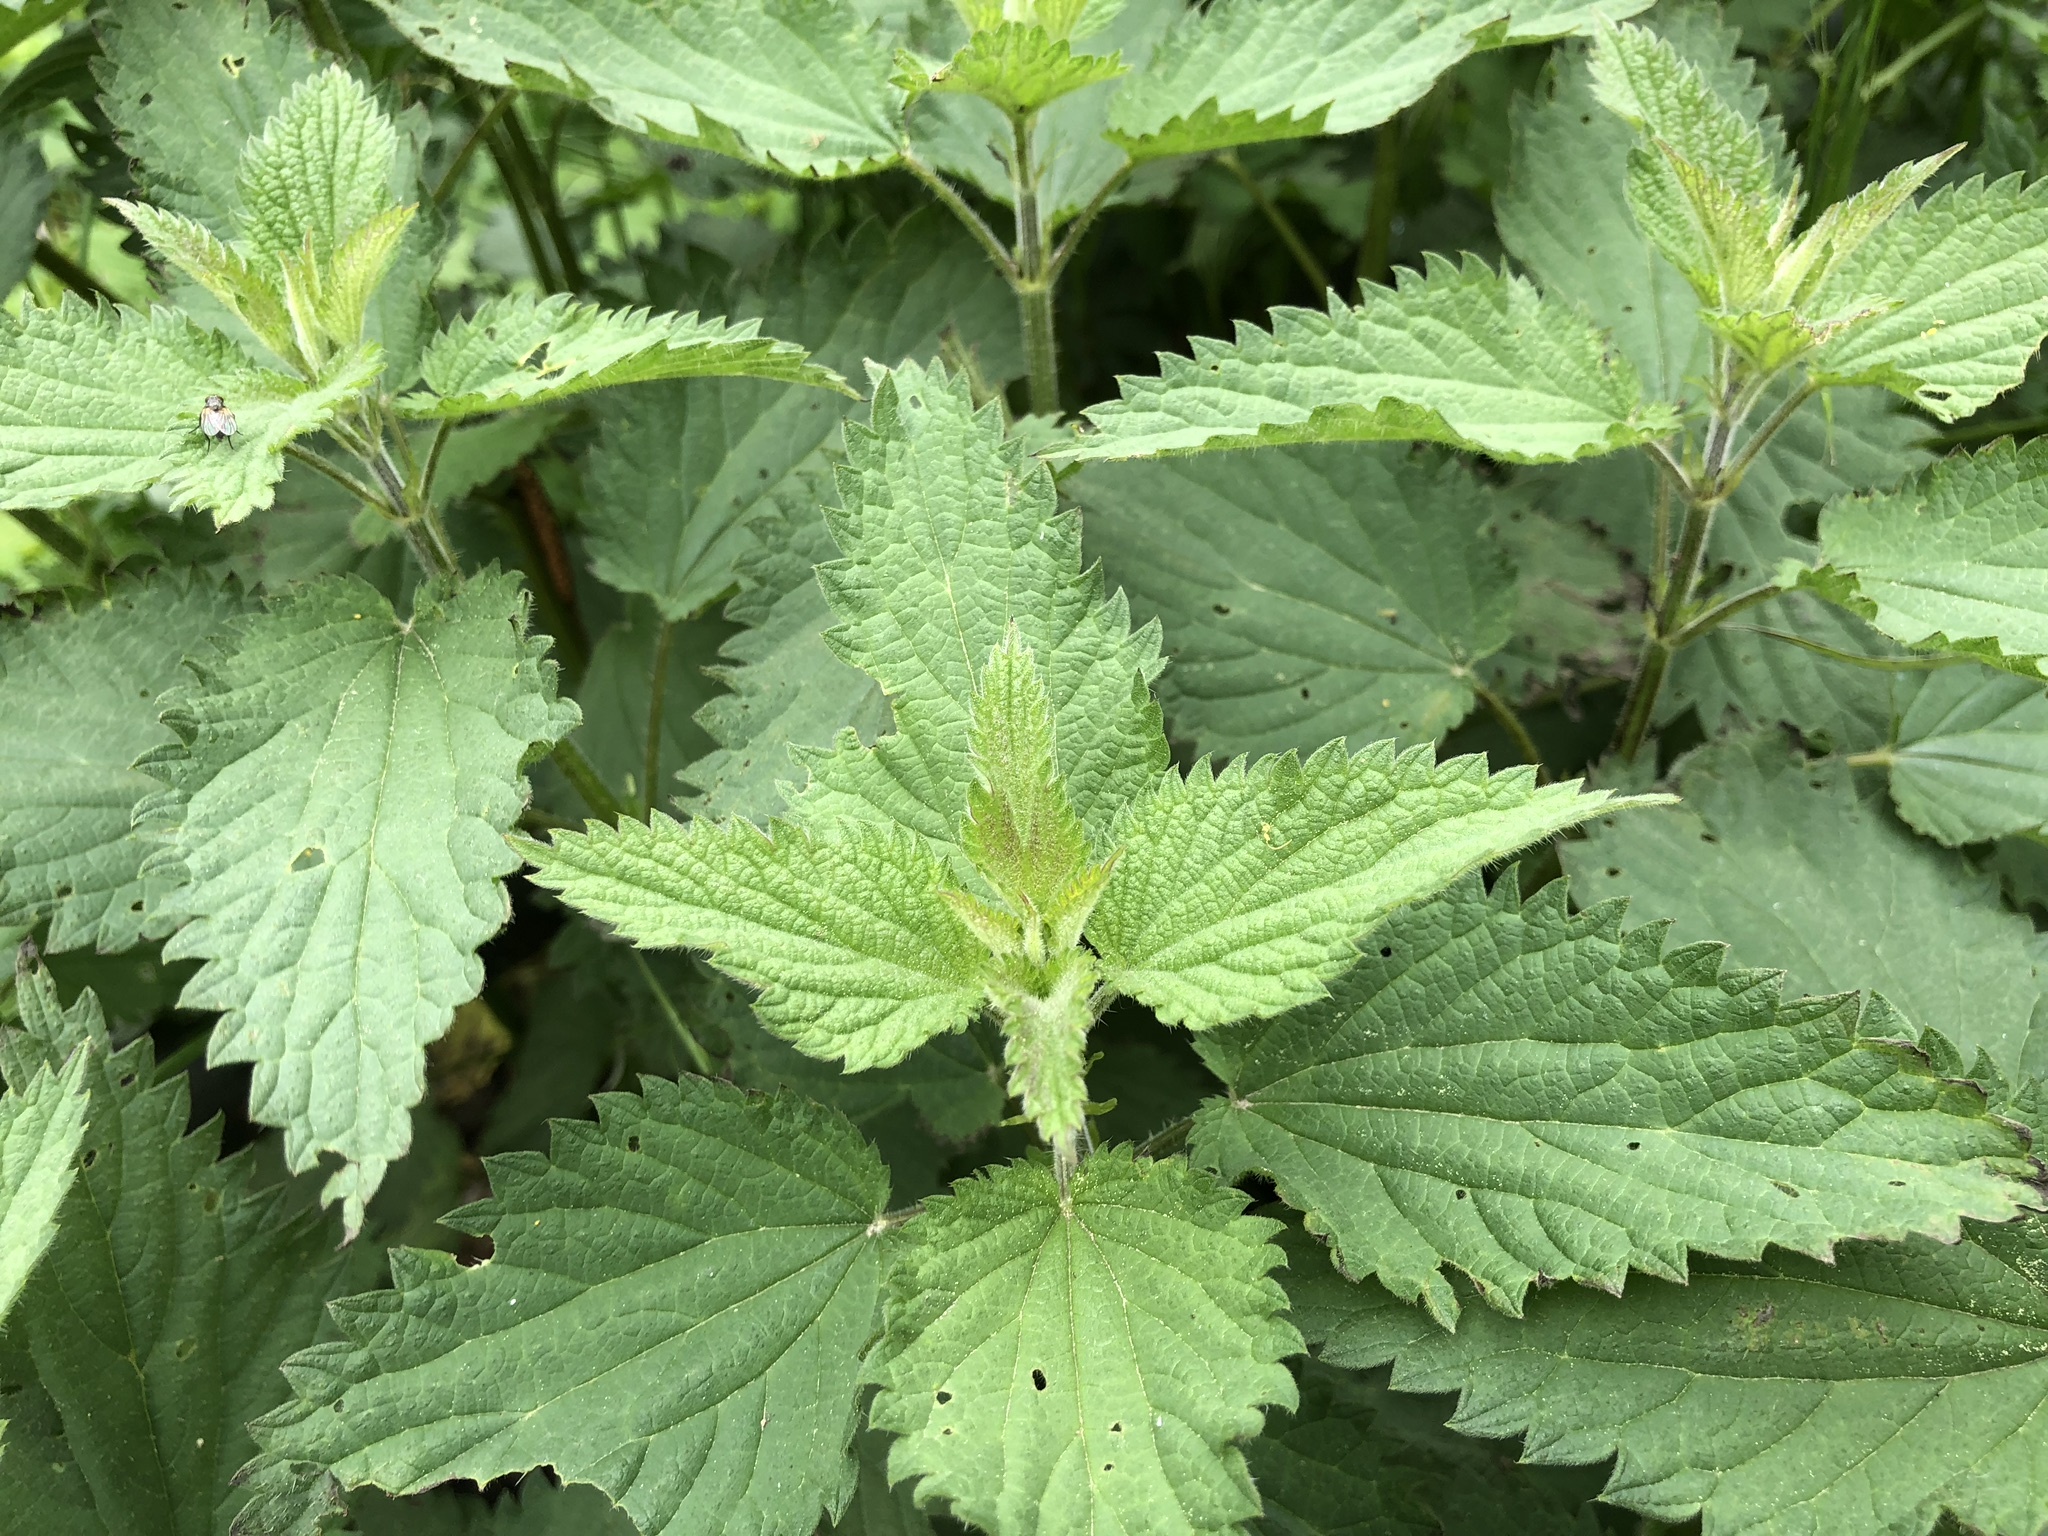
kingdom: Plantae
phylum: Tracheophyta
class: Magnoliopsida
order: Rosales
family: Urticaceae
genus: Urtica
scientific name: Urtica dioica
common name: Common nettle
